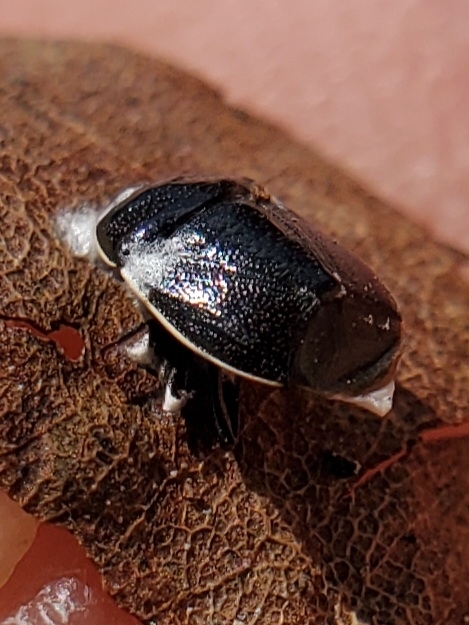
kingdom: Animalia
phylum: Arthropoda
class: Insecta
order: Hemiptera
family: Cydnidae
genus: Sehirus
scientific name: Sehirus cinctus
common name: White-margined burrower bug
